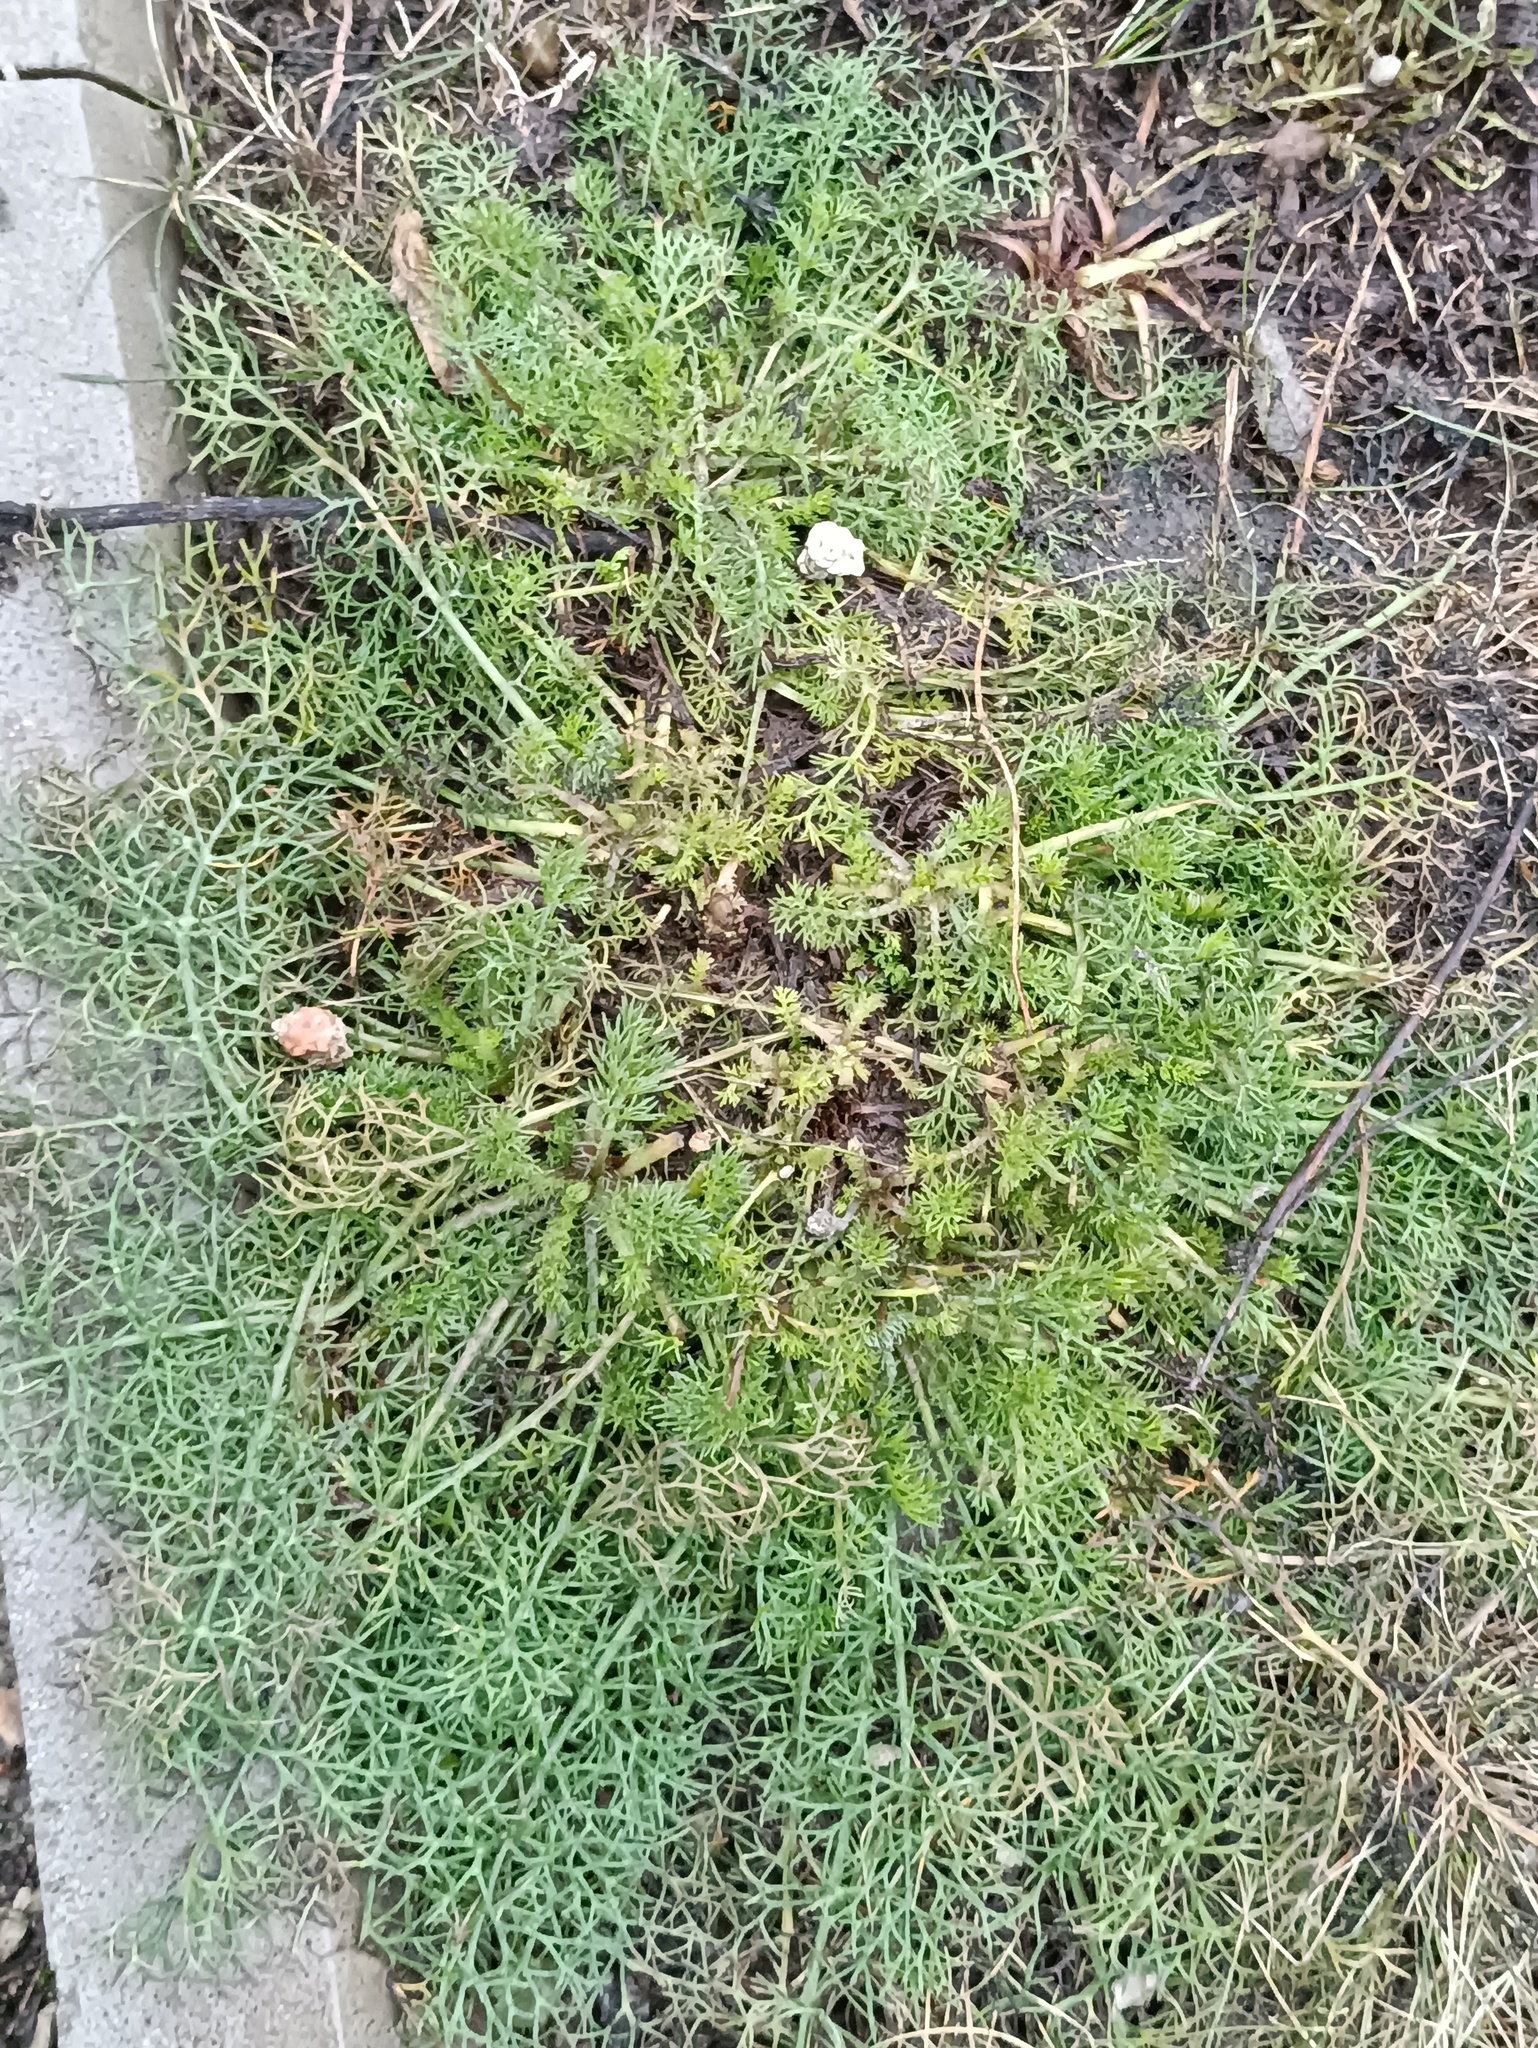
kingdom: Plantae
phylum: Tracheophyta
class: Magnoliopsida
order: Asterales
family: Asteraceae
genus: Tripleurospermum
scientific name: Tripleurospermum inodorum
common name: Scentless mayweed
